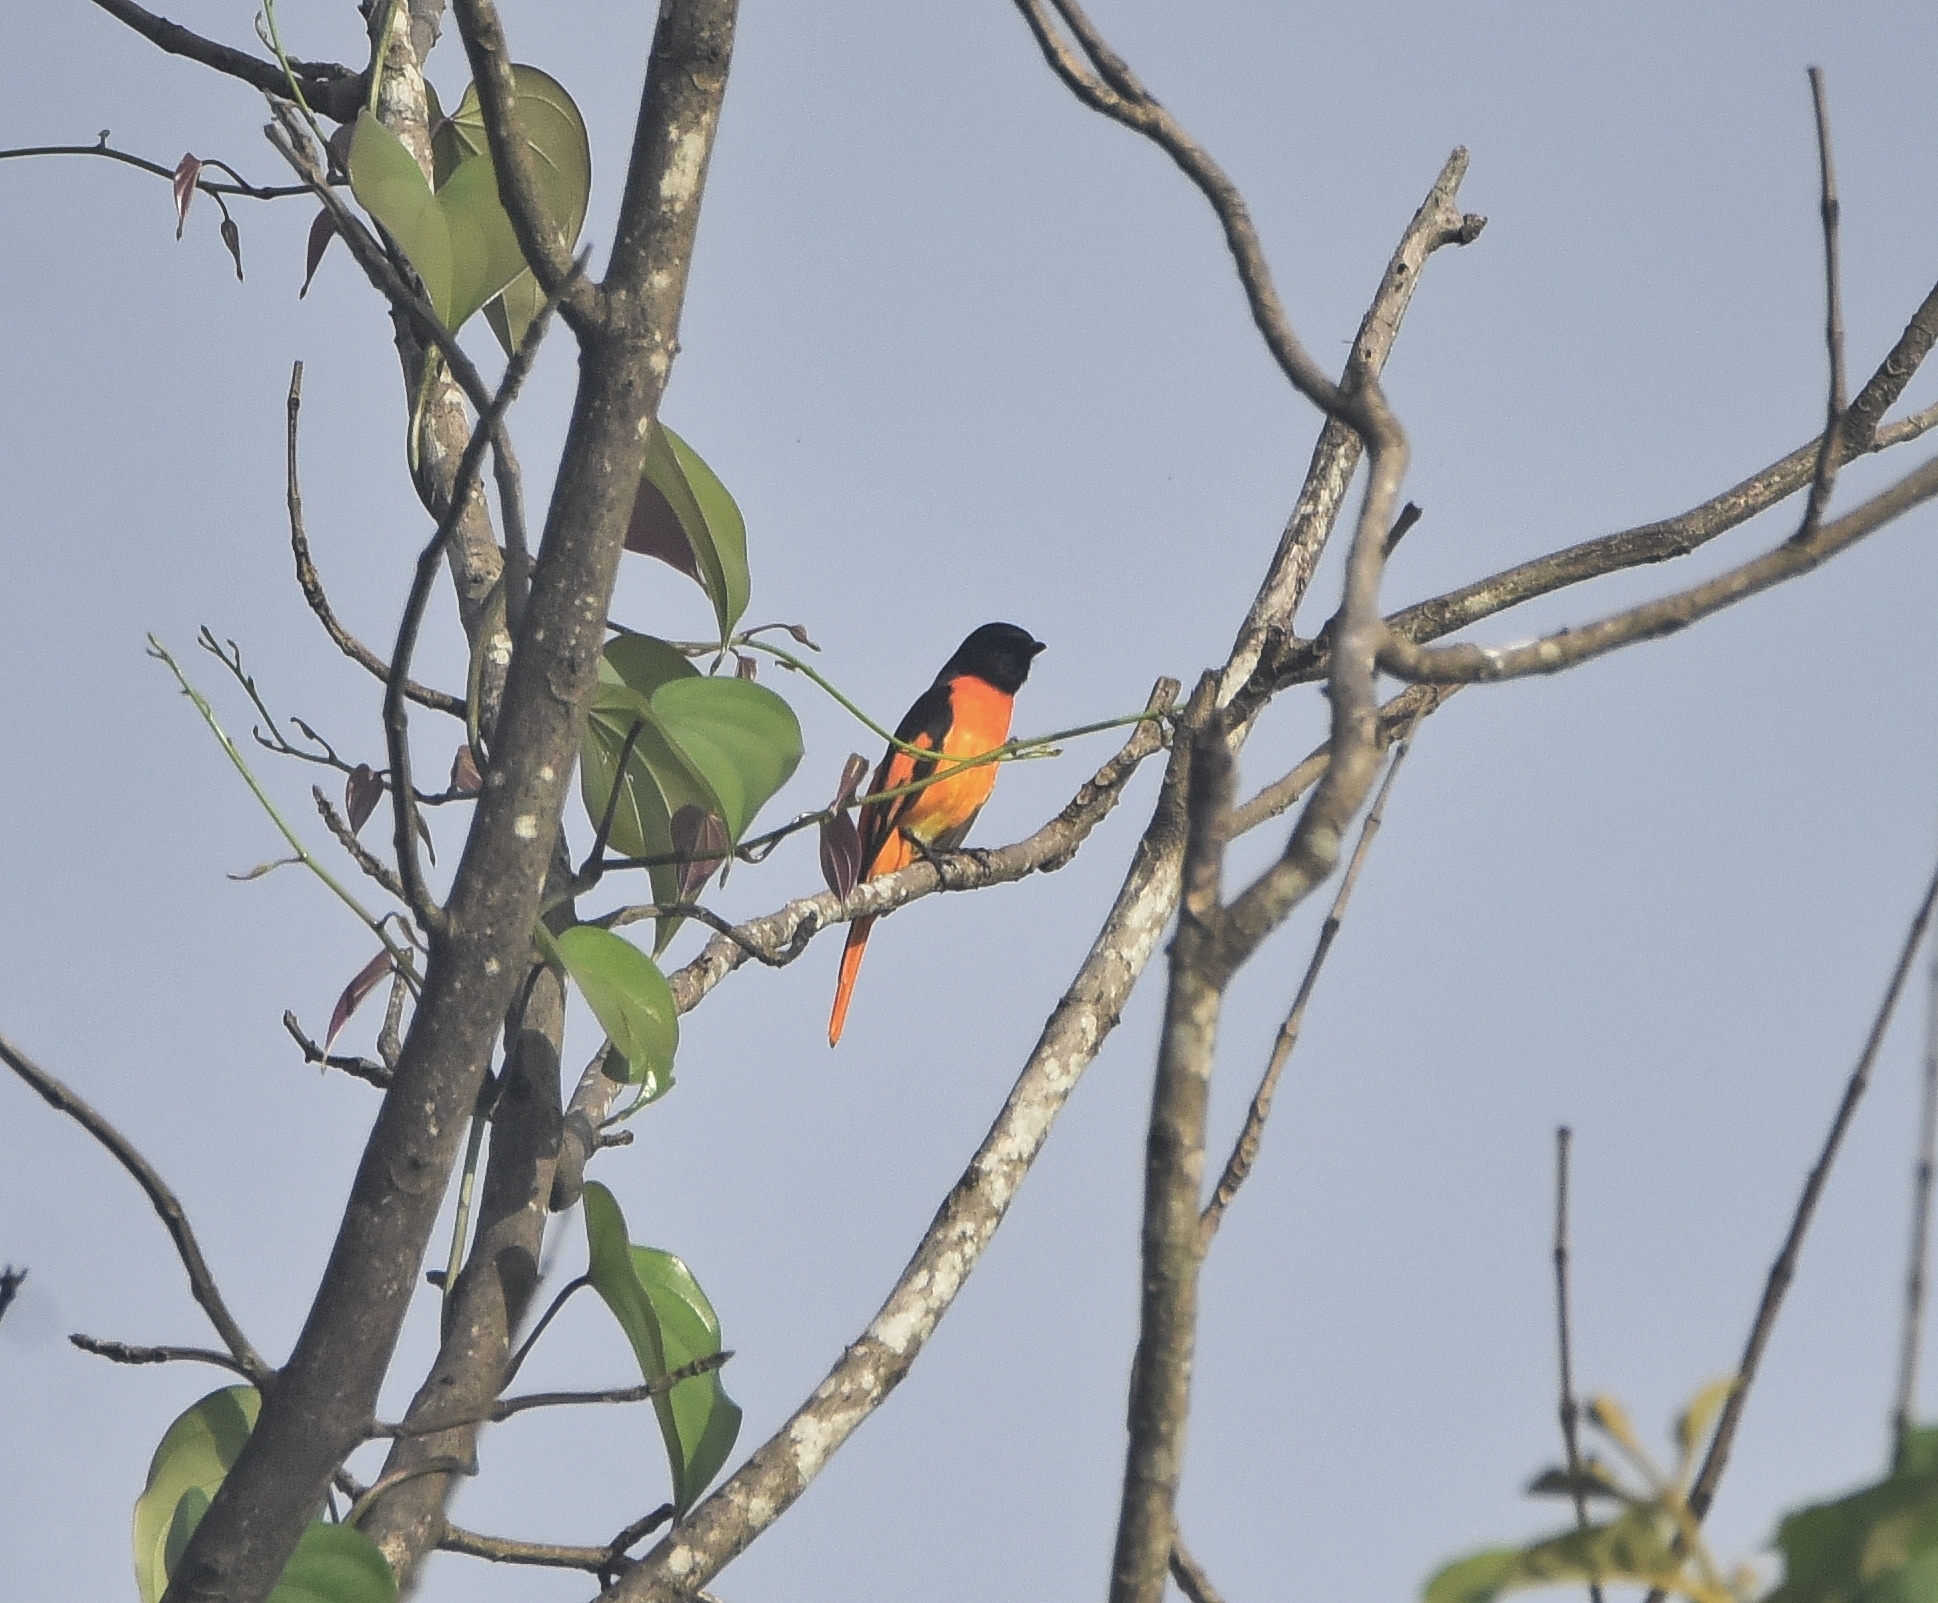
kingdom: Animalia
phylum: Chordata
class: Aves
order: Passeriformes
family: Campephagidae
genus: Pericrocotus
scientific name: Pericrocotus flammeus
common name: Orange minivet
